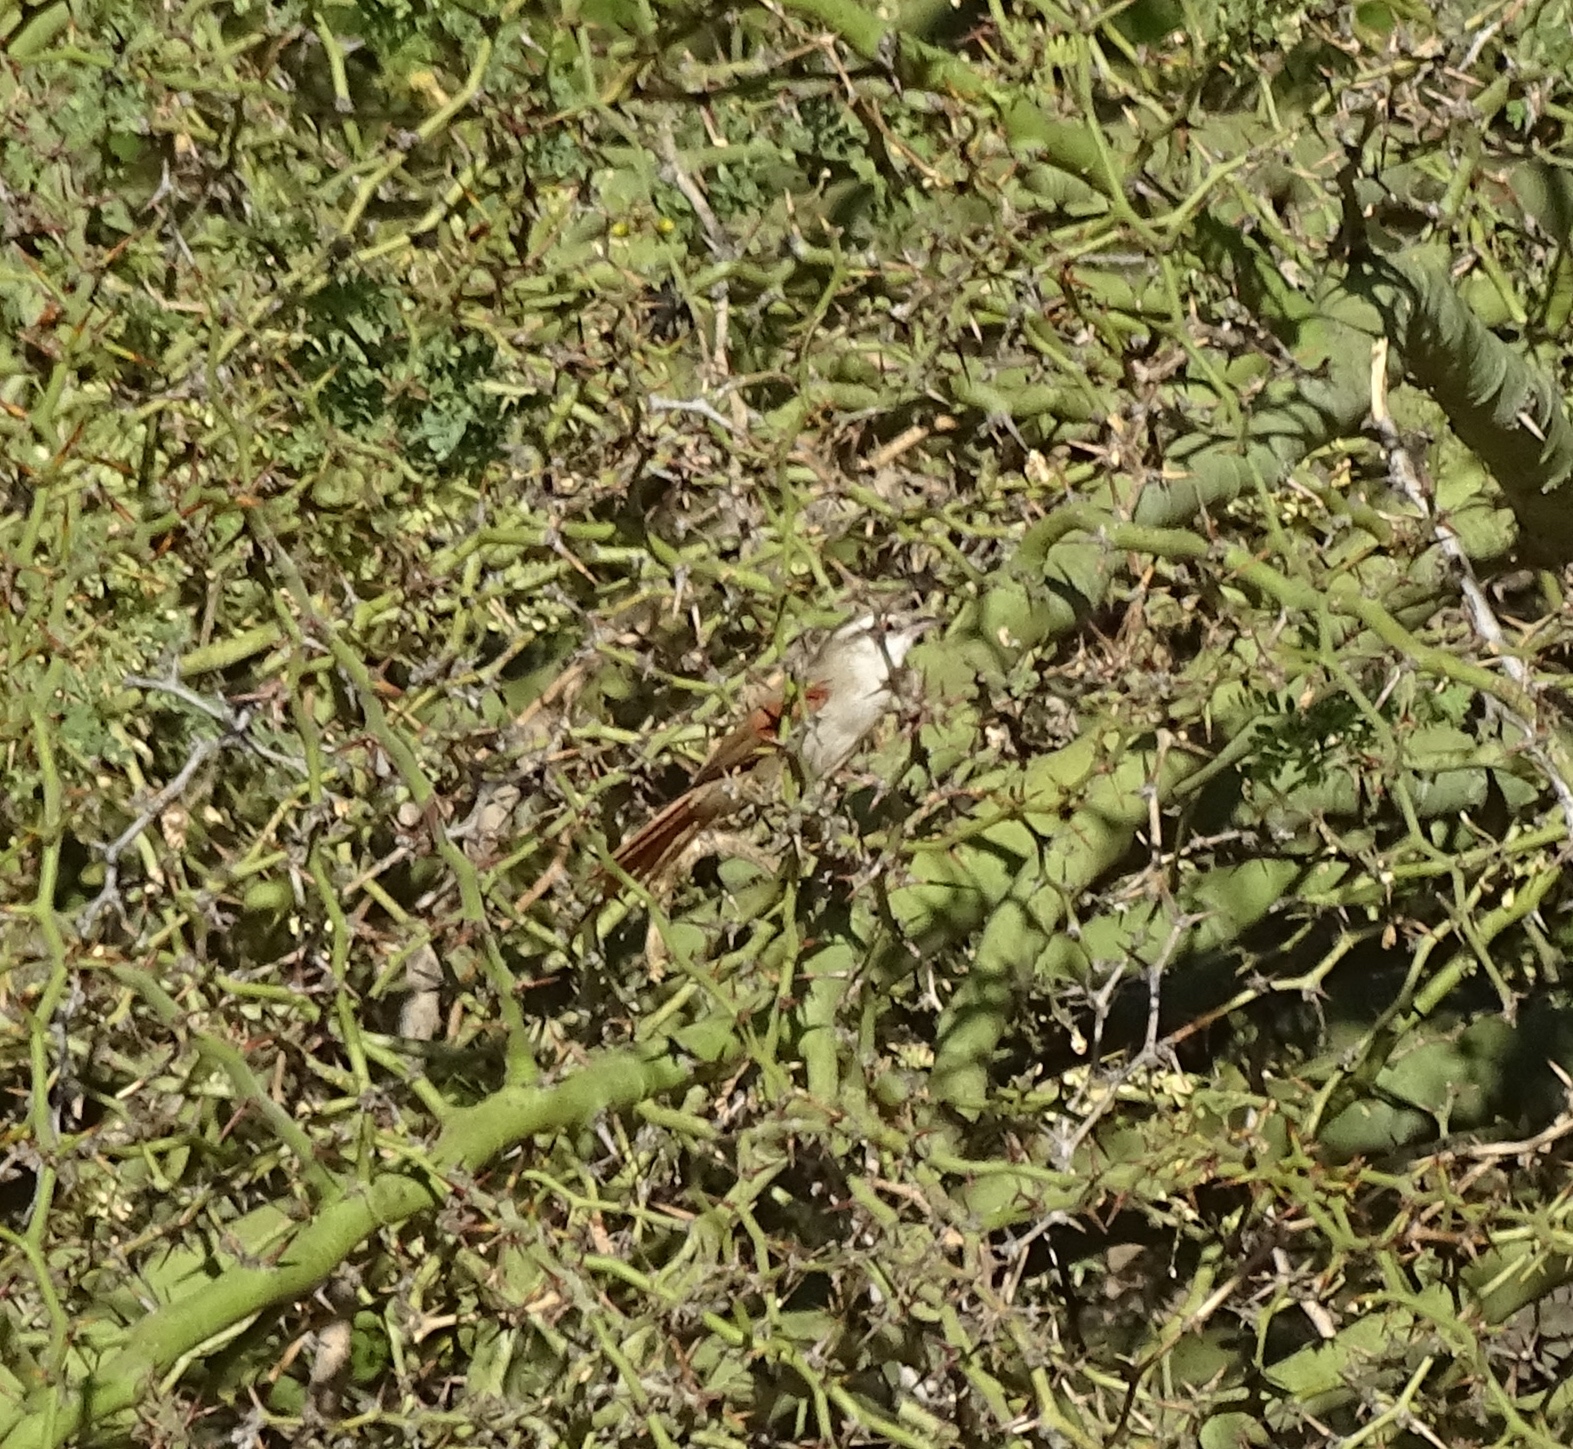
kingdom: Animalia
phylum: Chordata
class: Aves
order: Passeriformes
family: Furnariidae
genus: Cranioleuca
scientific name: Cranioleuca pyrrhophia
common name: Stripe-crowned spinetail
